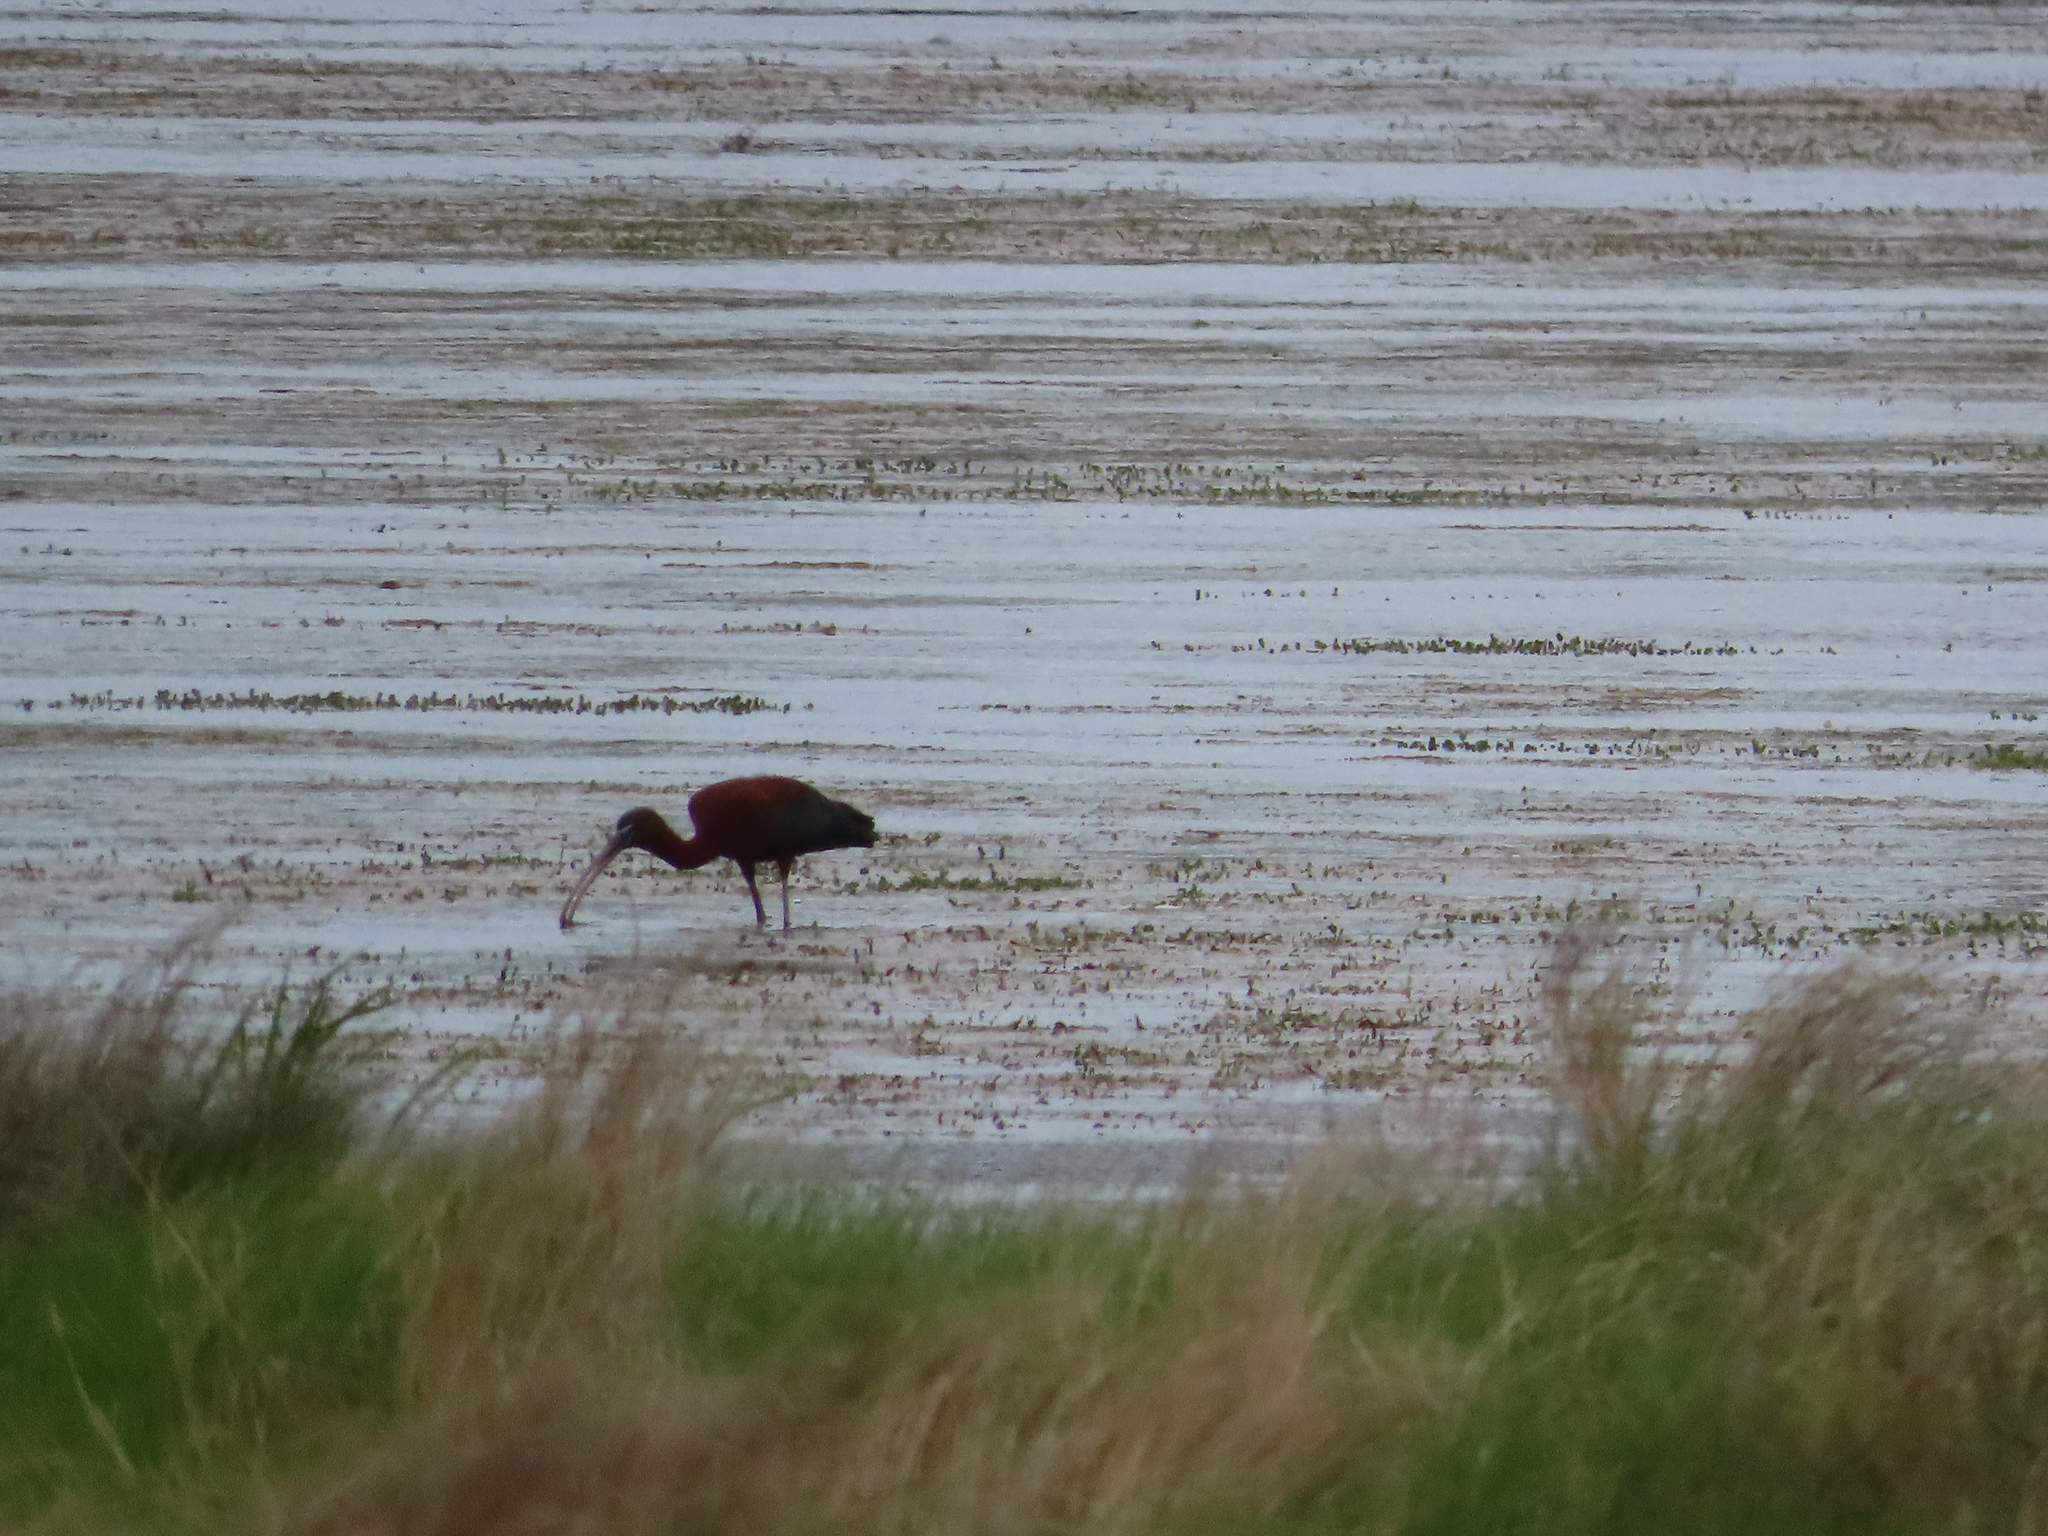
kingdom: Animalia
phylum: Chordata
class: Aves
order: Pelecaniformes
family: Threskiornithidae
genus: Plegadis
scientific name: Plegadis falcinellus
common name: Glossy ibis
